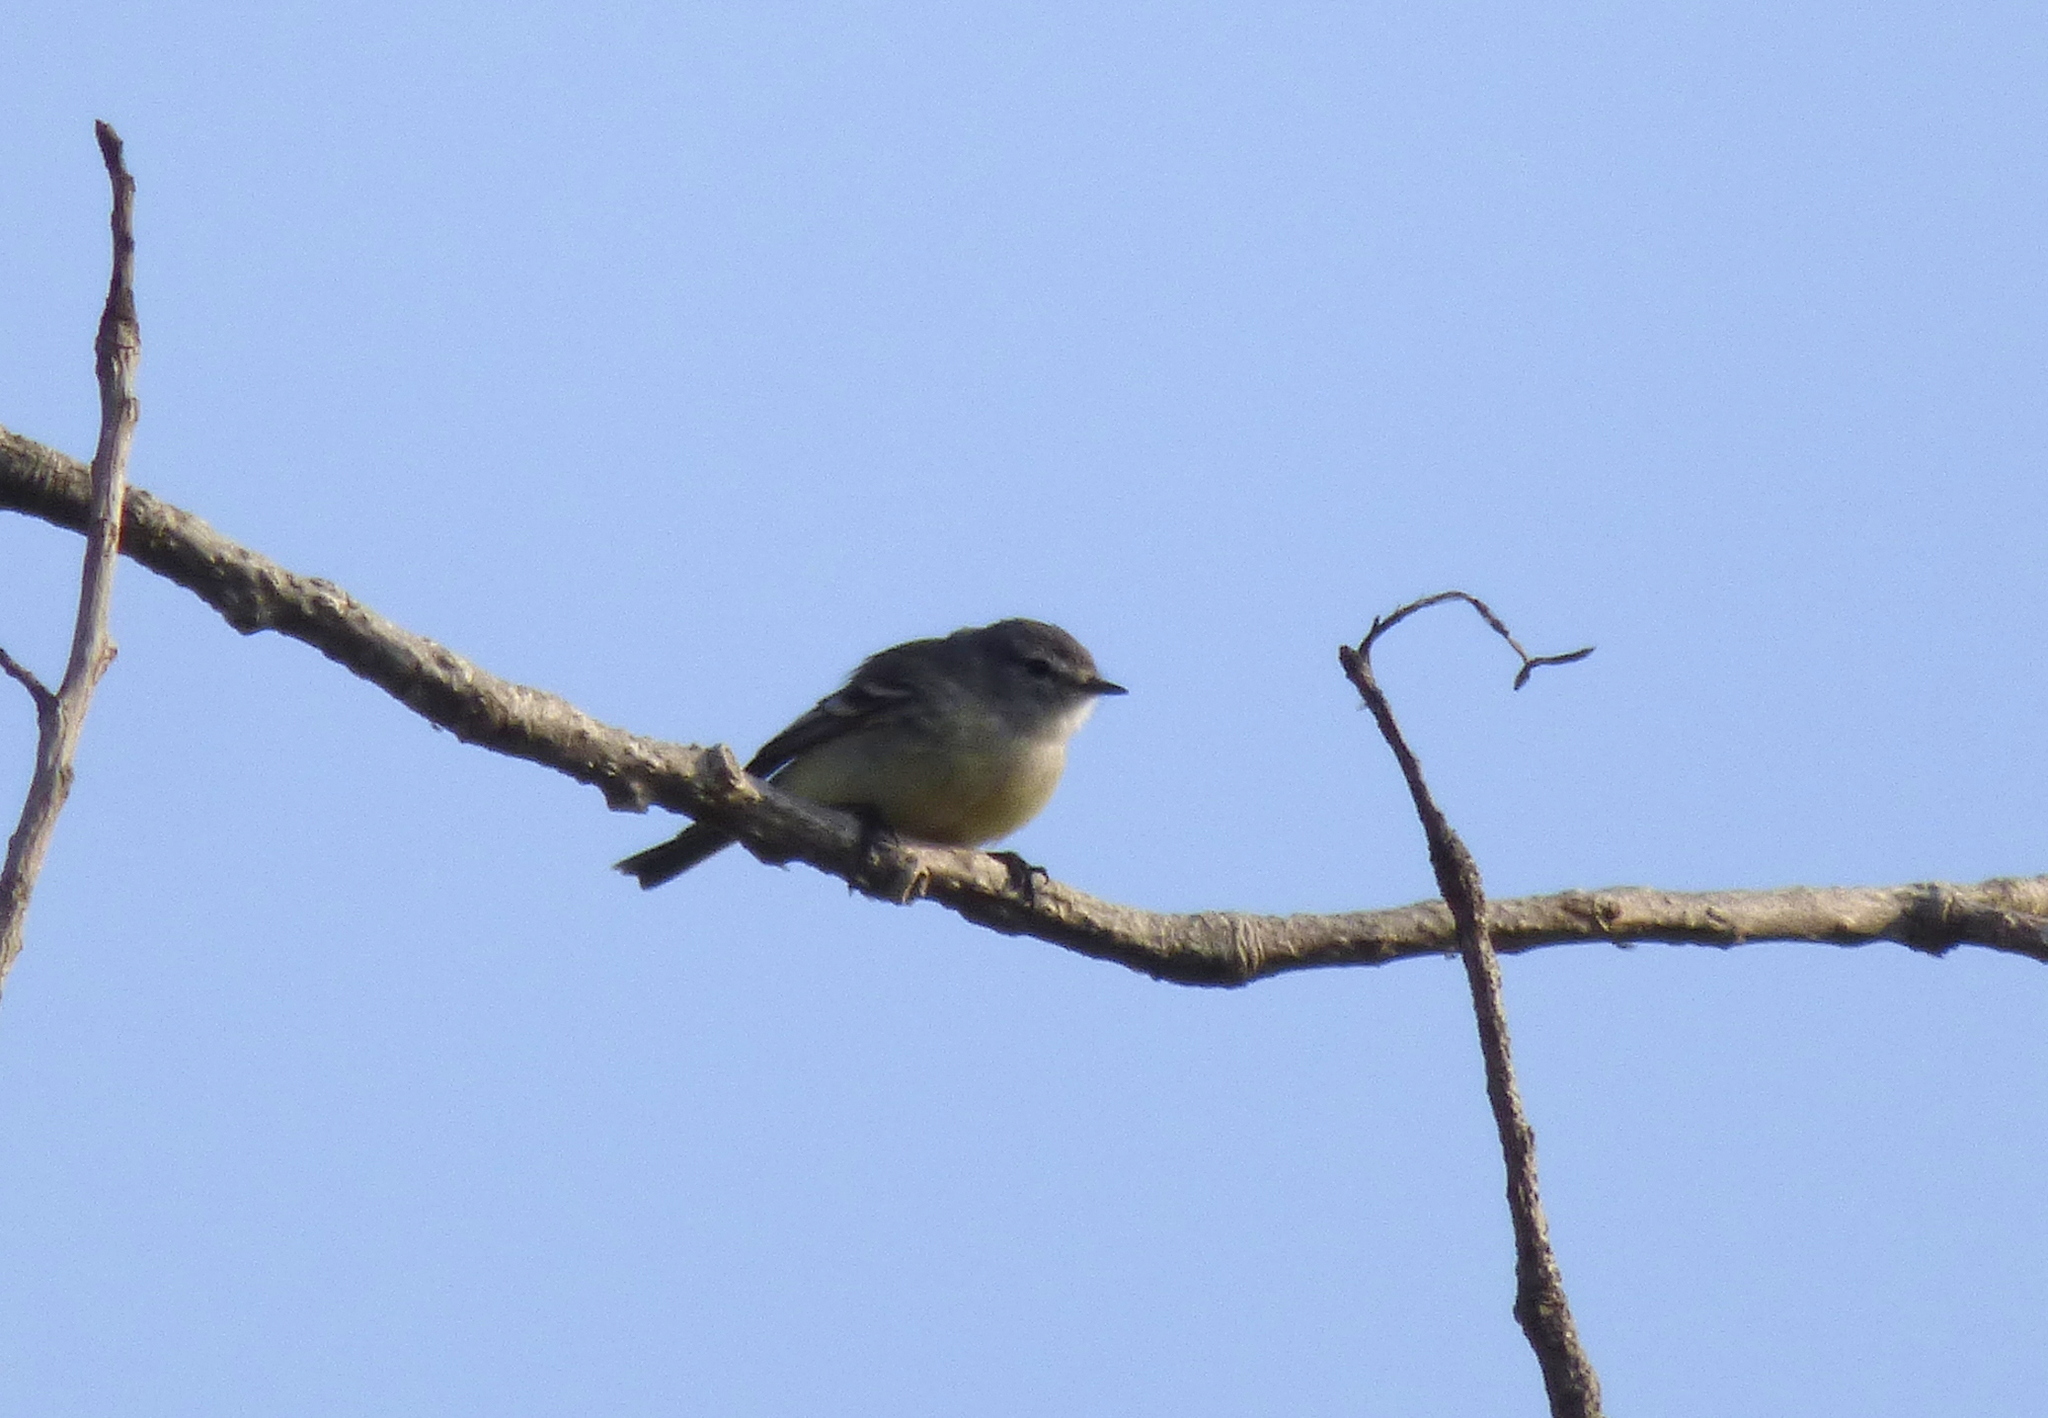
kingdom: Animalia
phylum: Chordata
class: Aves
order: Passeriformes
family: Tyrannidae
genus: Serpophaga
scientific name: Serpophaga griseicapilla
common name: Straneck's tyrannulet
